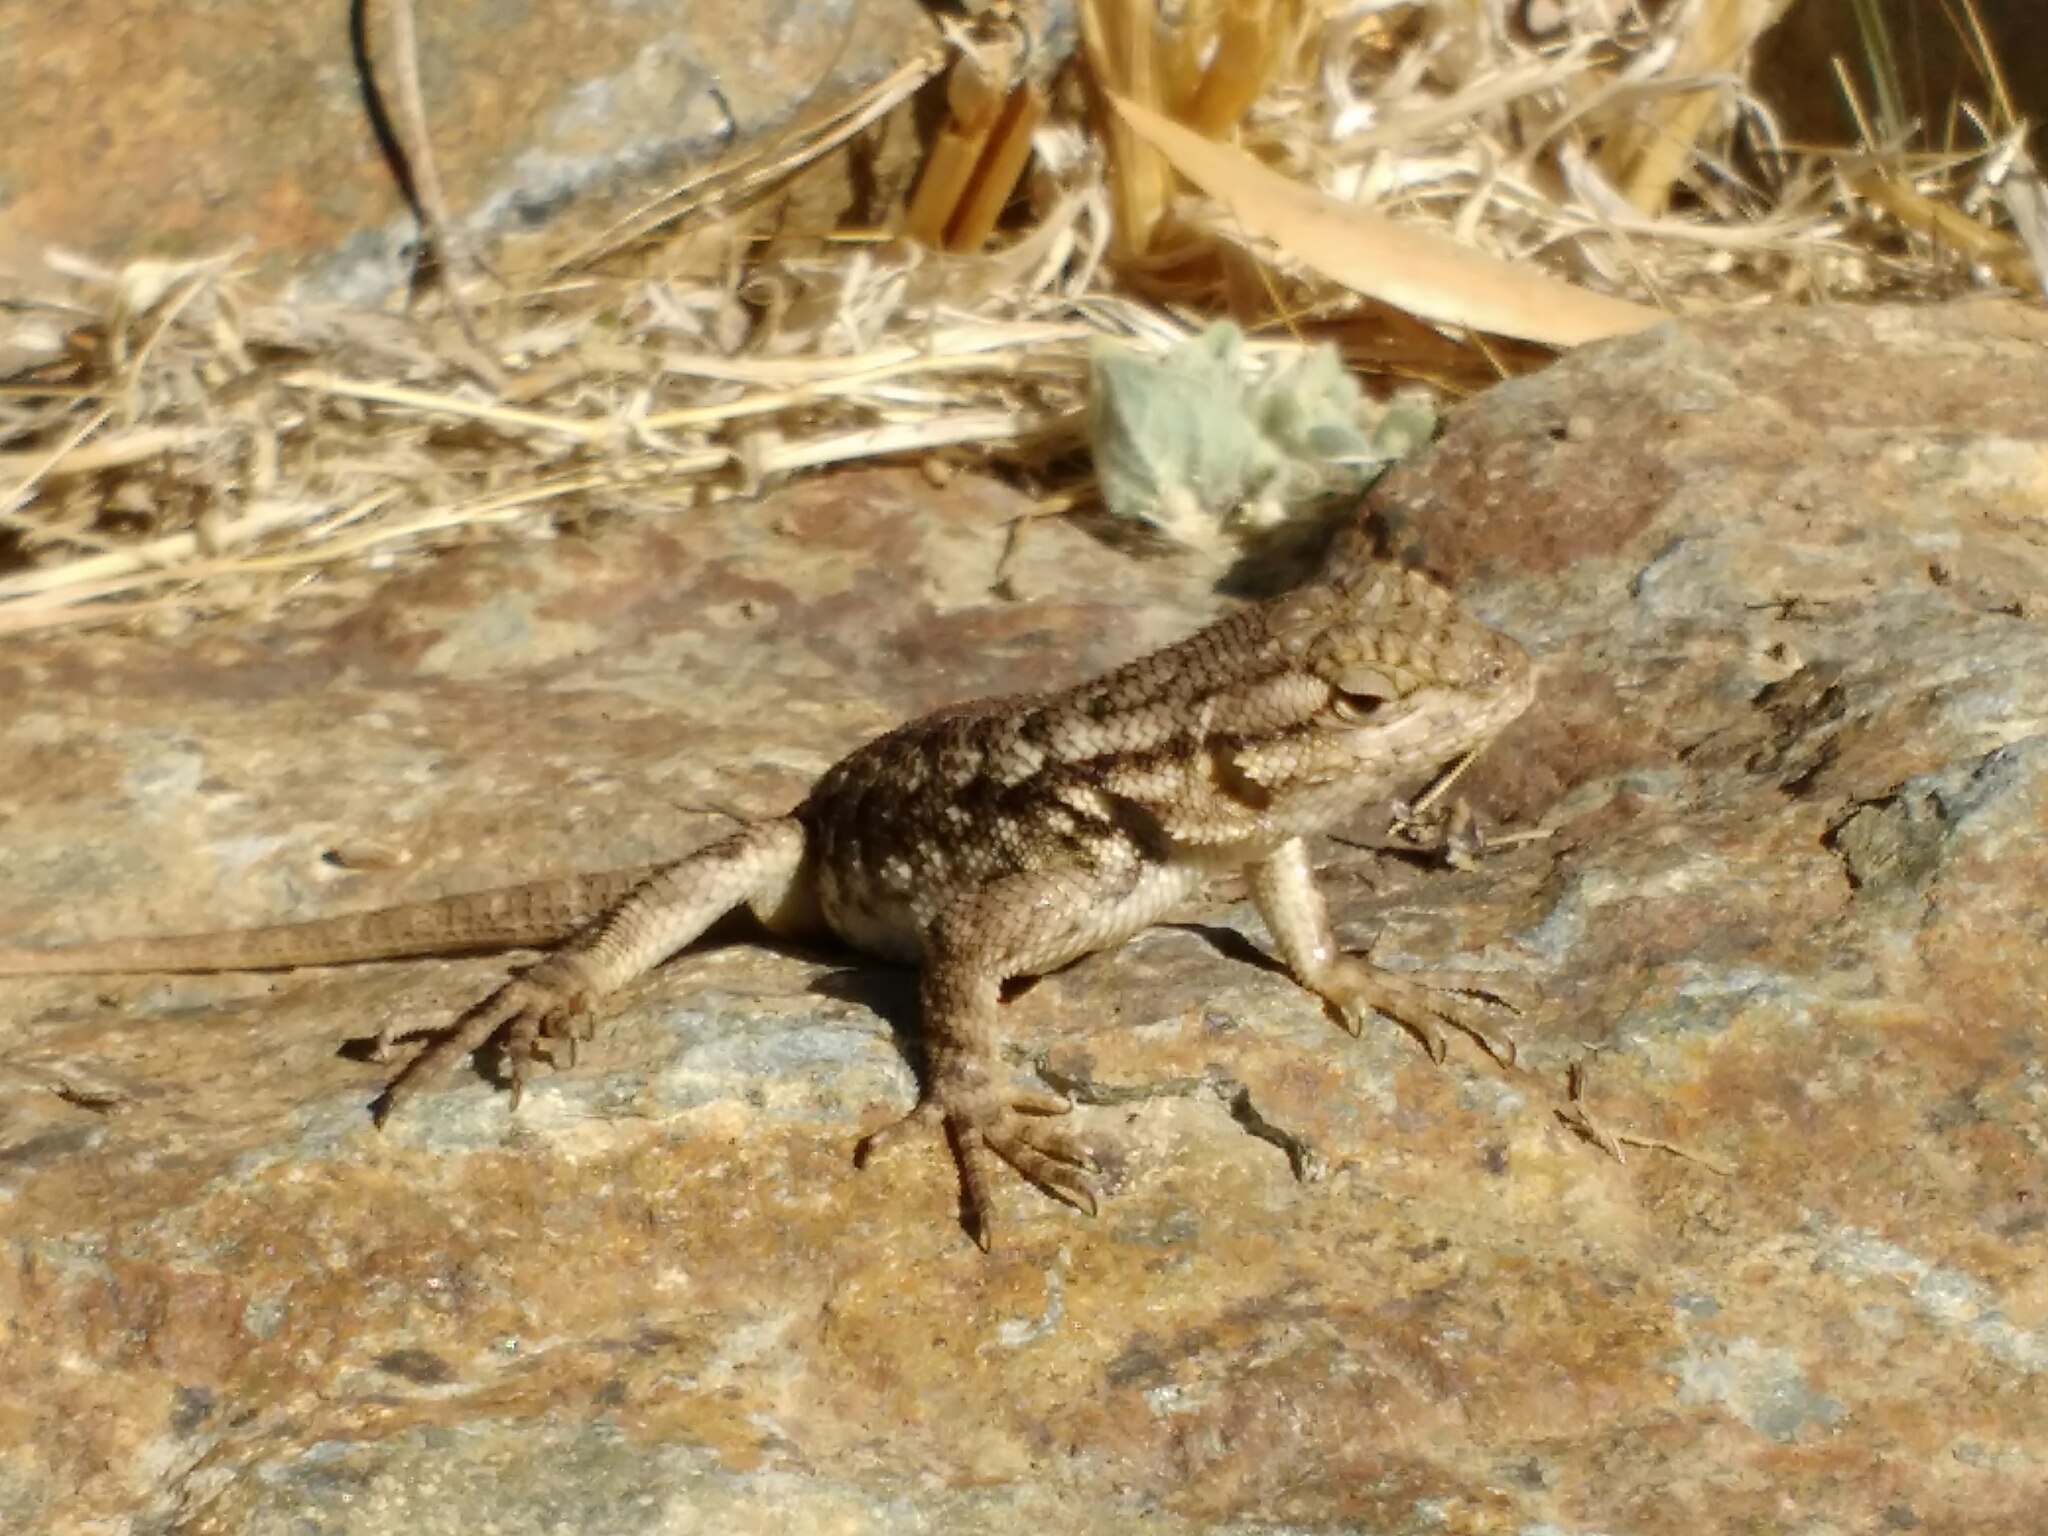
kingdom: Animalia
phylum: Chordata
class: Squamata
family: Phrynosomatidae
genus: Sceloporus
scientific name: Sceloporus occidentalis
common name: Western fence lizard
